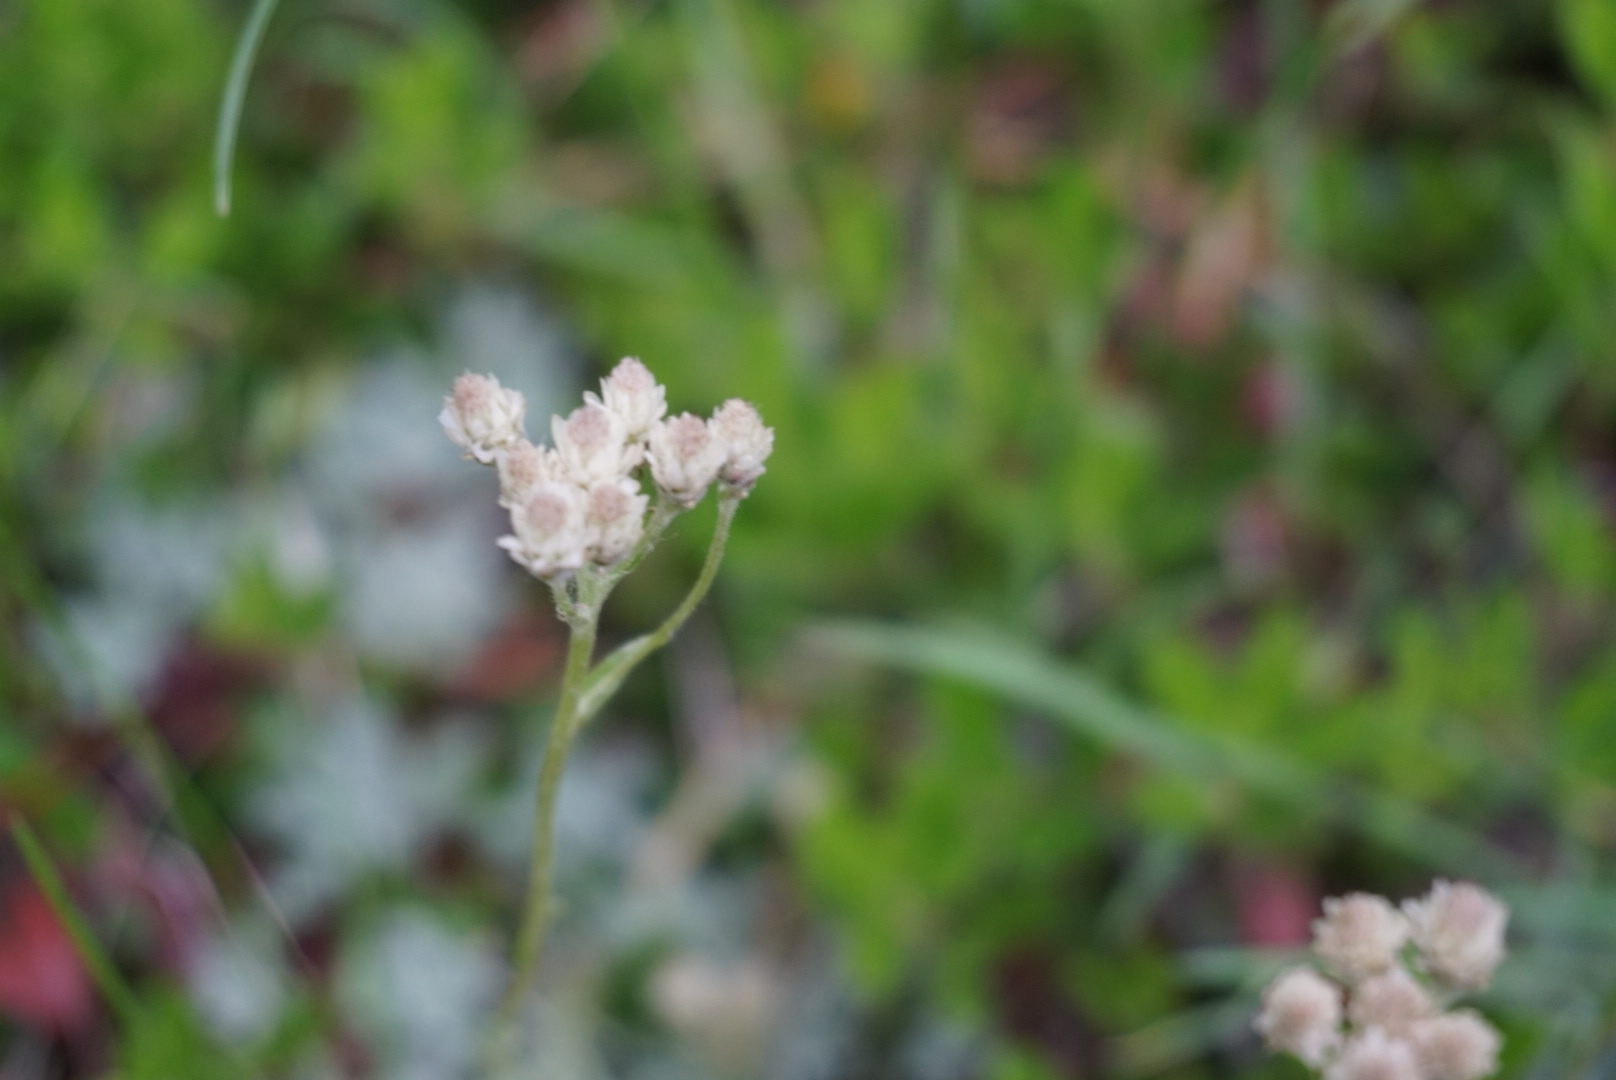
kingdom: Plantae
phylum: Tracheophyta
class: Magnoliopsida
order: Asterales
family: Asteraceae
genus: Antennaria
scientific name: Antennaria rosea
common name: Rosy pussytoes
